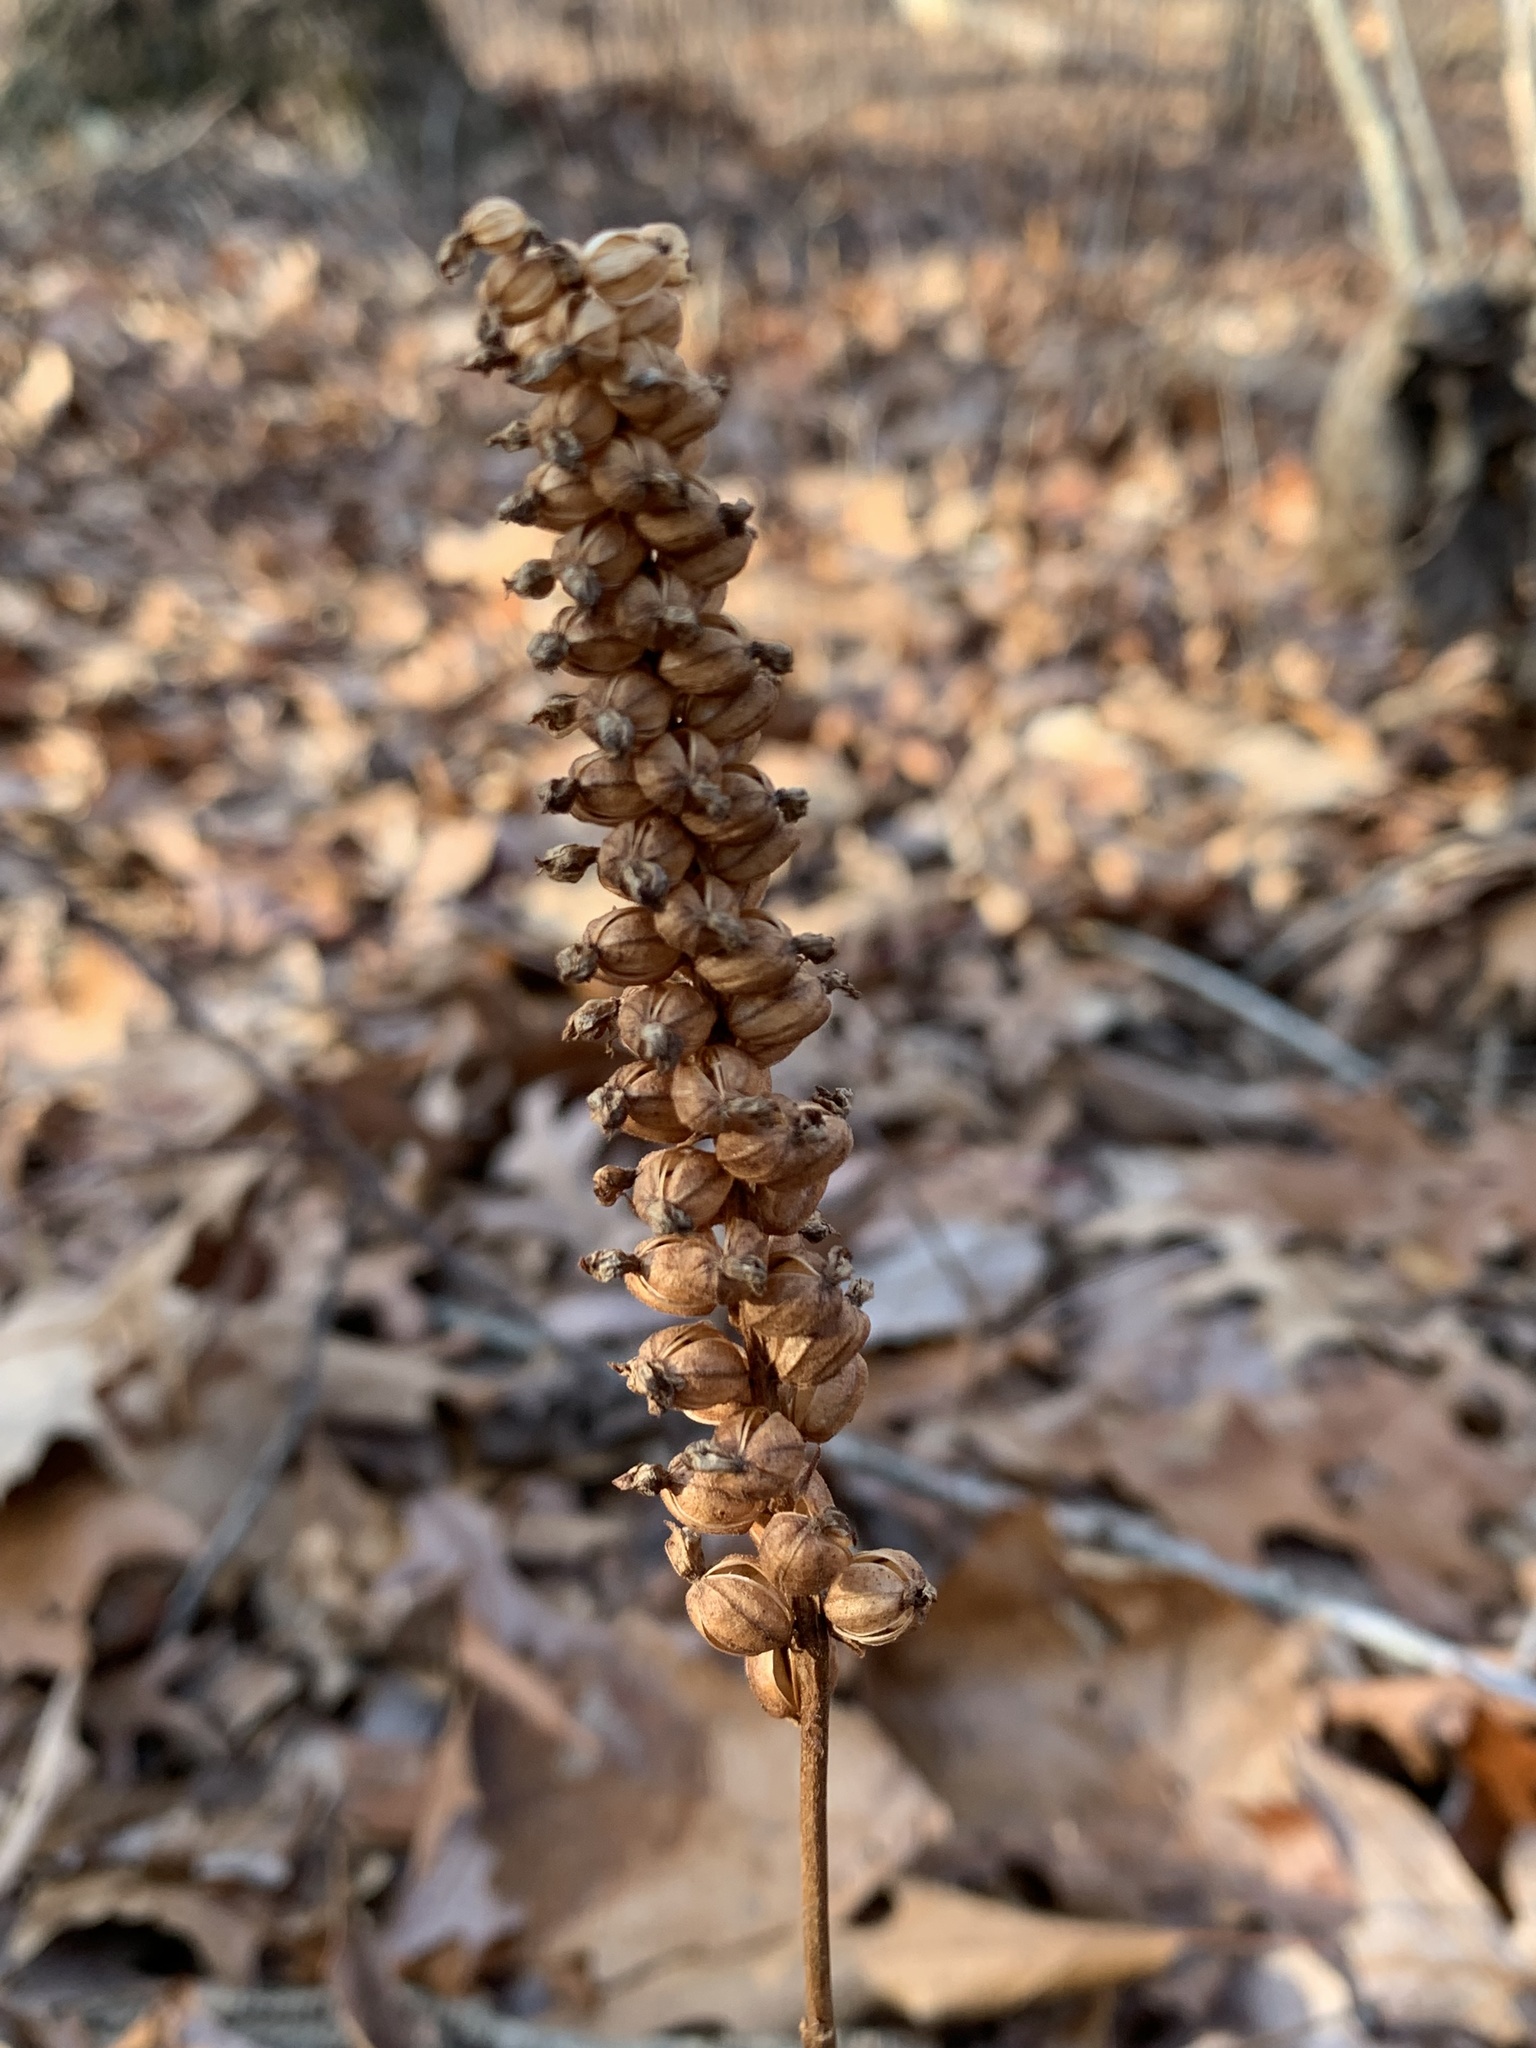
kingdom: Plantae
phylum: Tracheophyta
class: Liliopsida
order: Asparagales
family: Orchidaceae
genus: Goodyera
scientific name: Goodyera pubescens
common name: Downy rattlesnake-plantain
